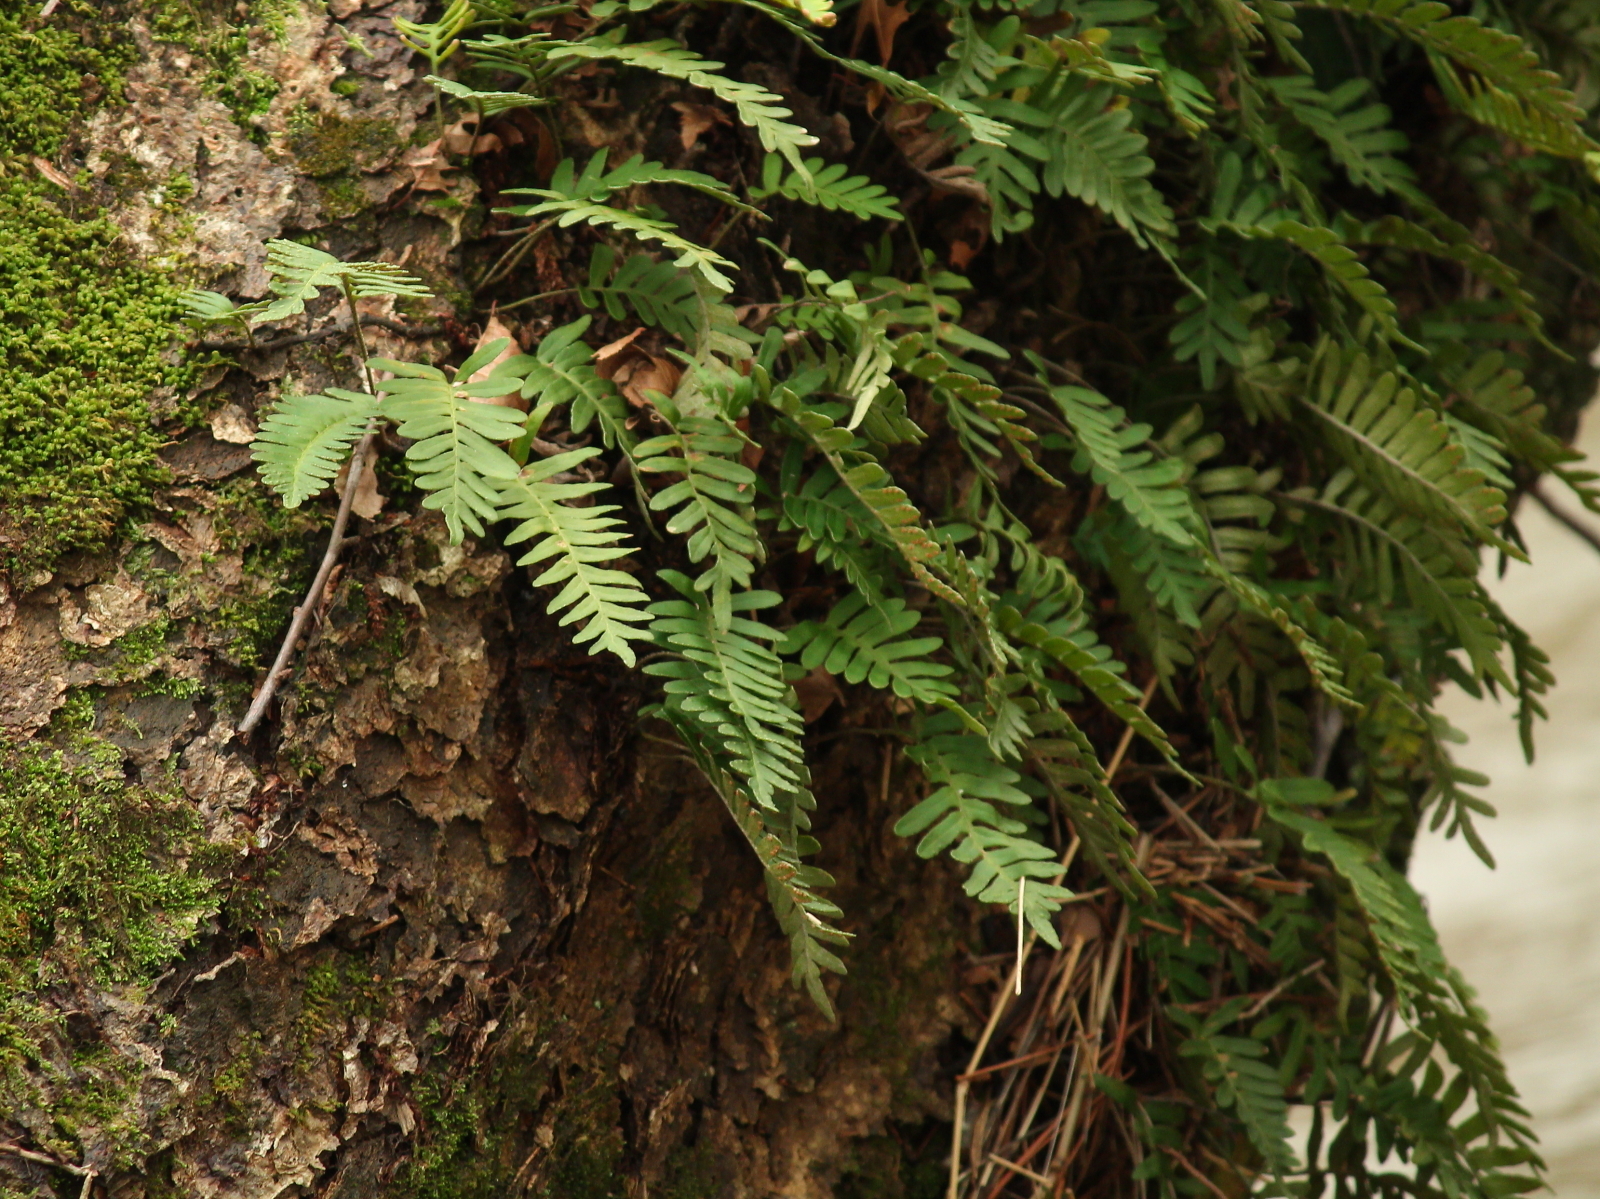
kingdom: Plantae
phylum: Tracheophyta
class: Polypodiopsida
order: Polypodiales
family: Polypodiaceae
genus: Pleopeltis
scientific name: Pleopeltis michauxiana
